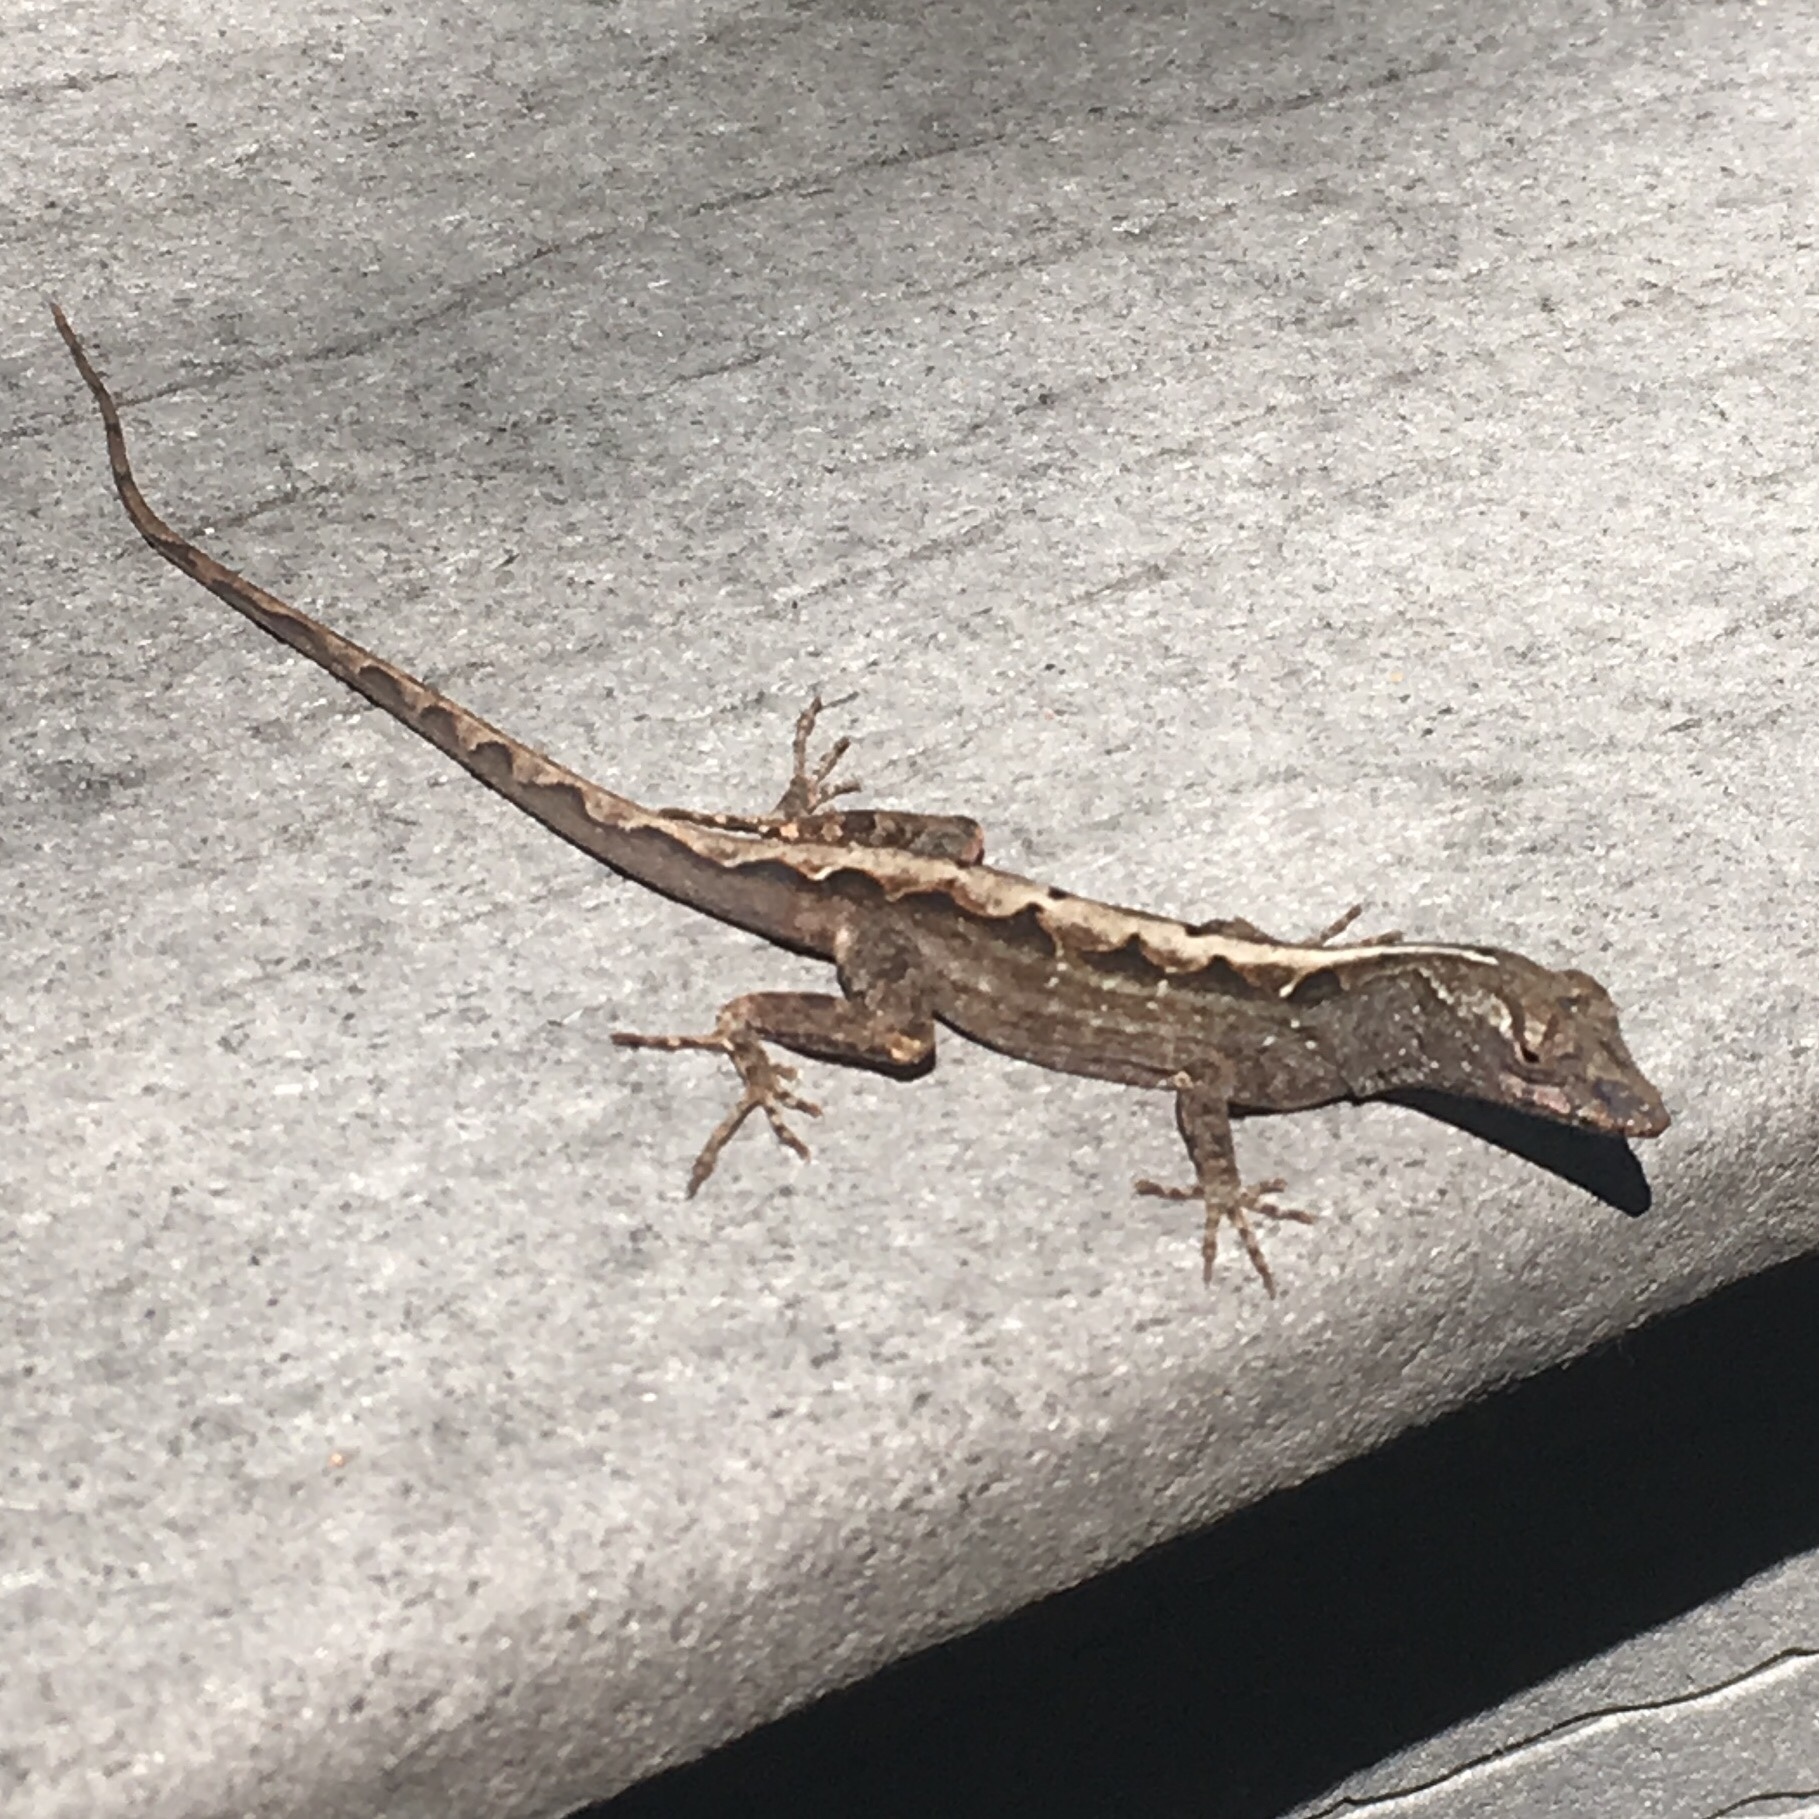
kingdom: Animalia
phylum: Chordata
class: Squamata
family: Dactyloidae
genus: Anolis
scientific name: Anolis sagrei
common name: Brown anole
